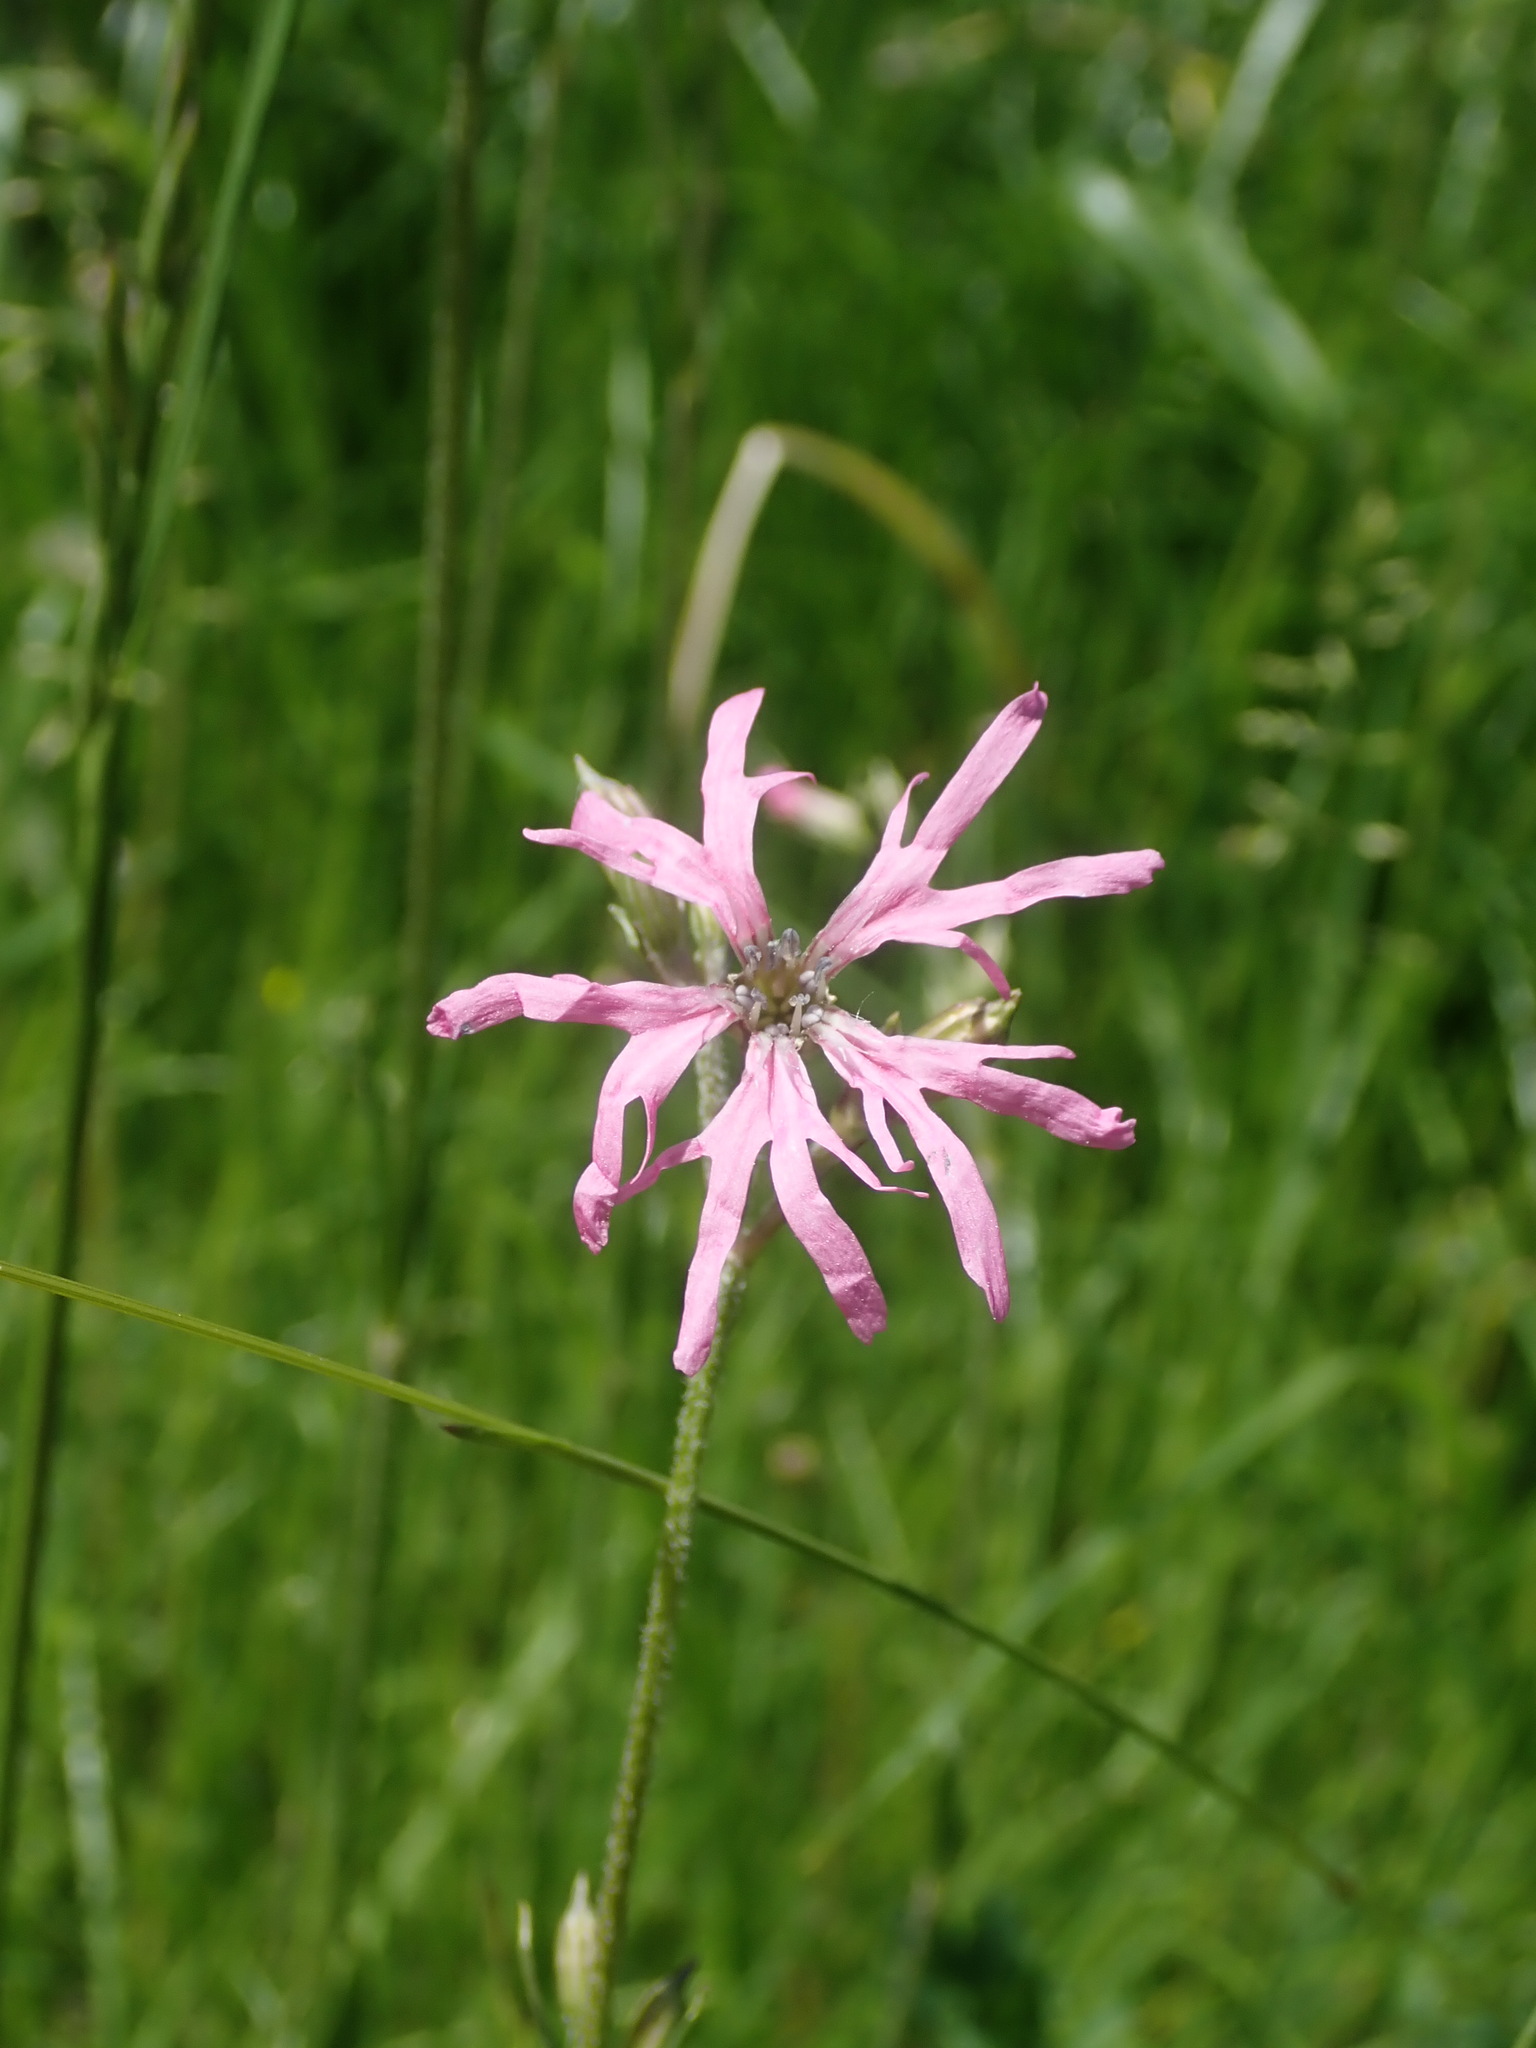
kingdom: Plantae
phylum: Tracheophyta
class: Magnoliopsida
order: Caryophyllales
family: Caryophyllaceae
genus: Silene
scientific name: Silene flos-cuculi
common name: Ragged-robin
